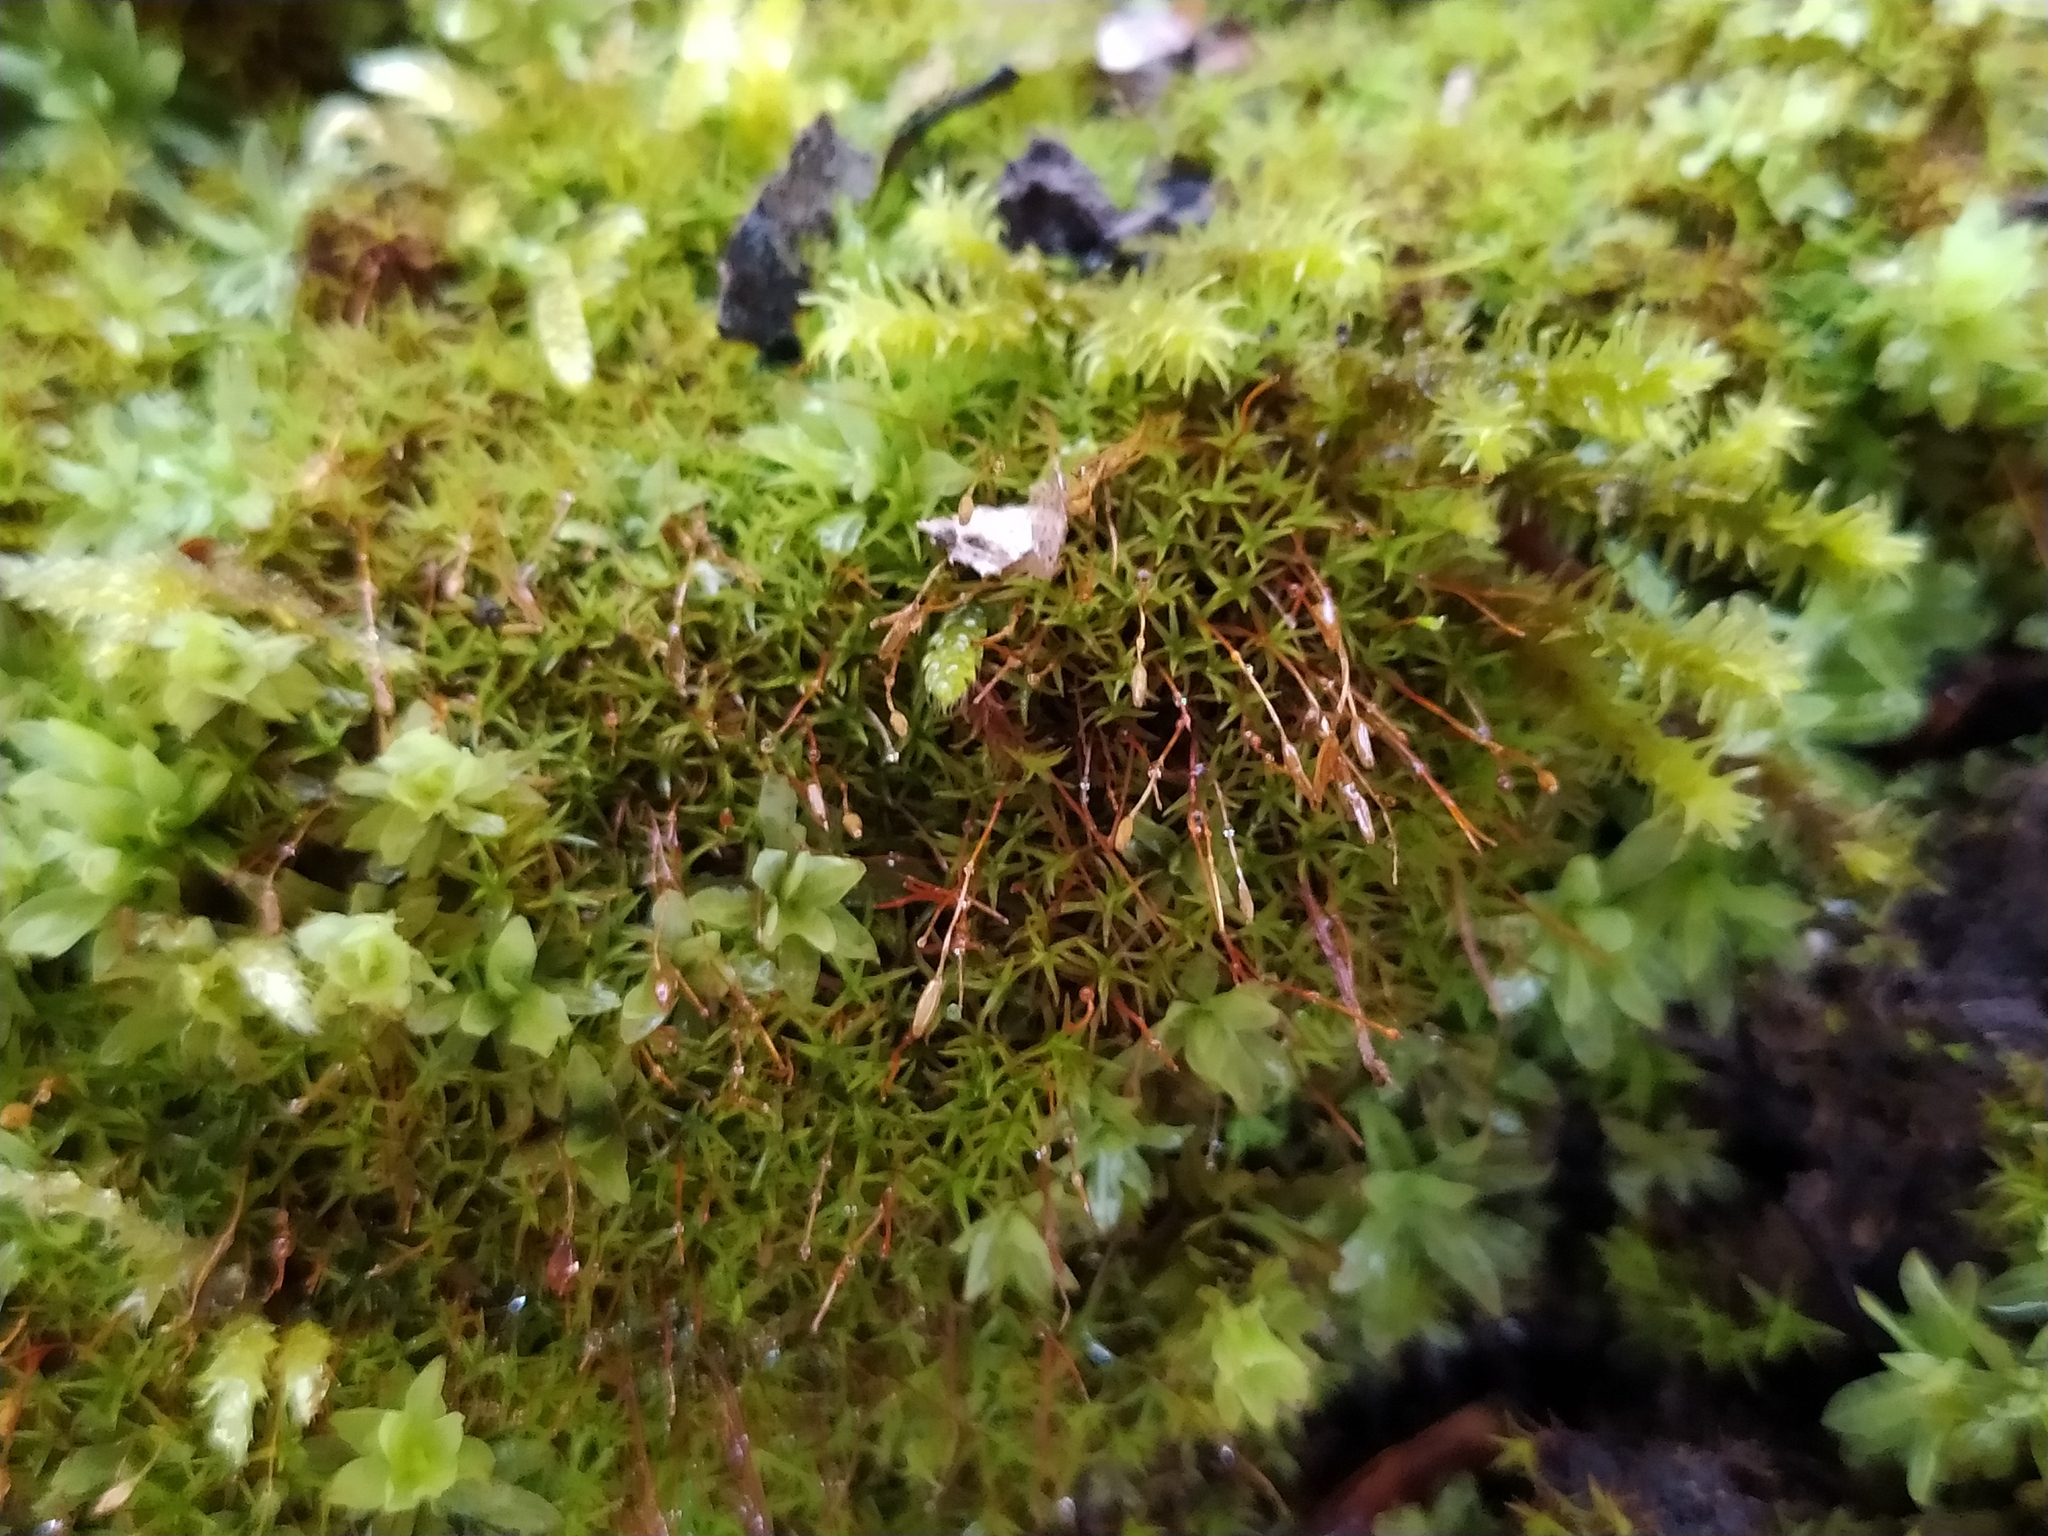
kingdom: Plantae
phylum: Bryophyta
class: Bryopsida
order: Pottiales
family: Pottiaceae
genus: Bryoerythrophyllum
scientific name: Bryoerythrophyllum recurvirostrum
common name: Red beard moss
